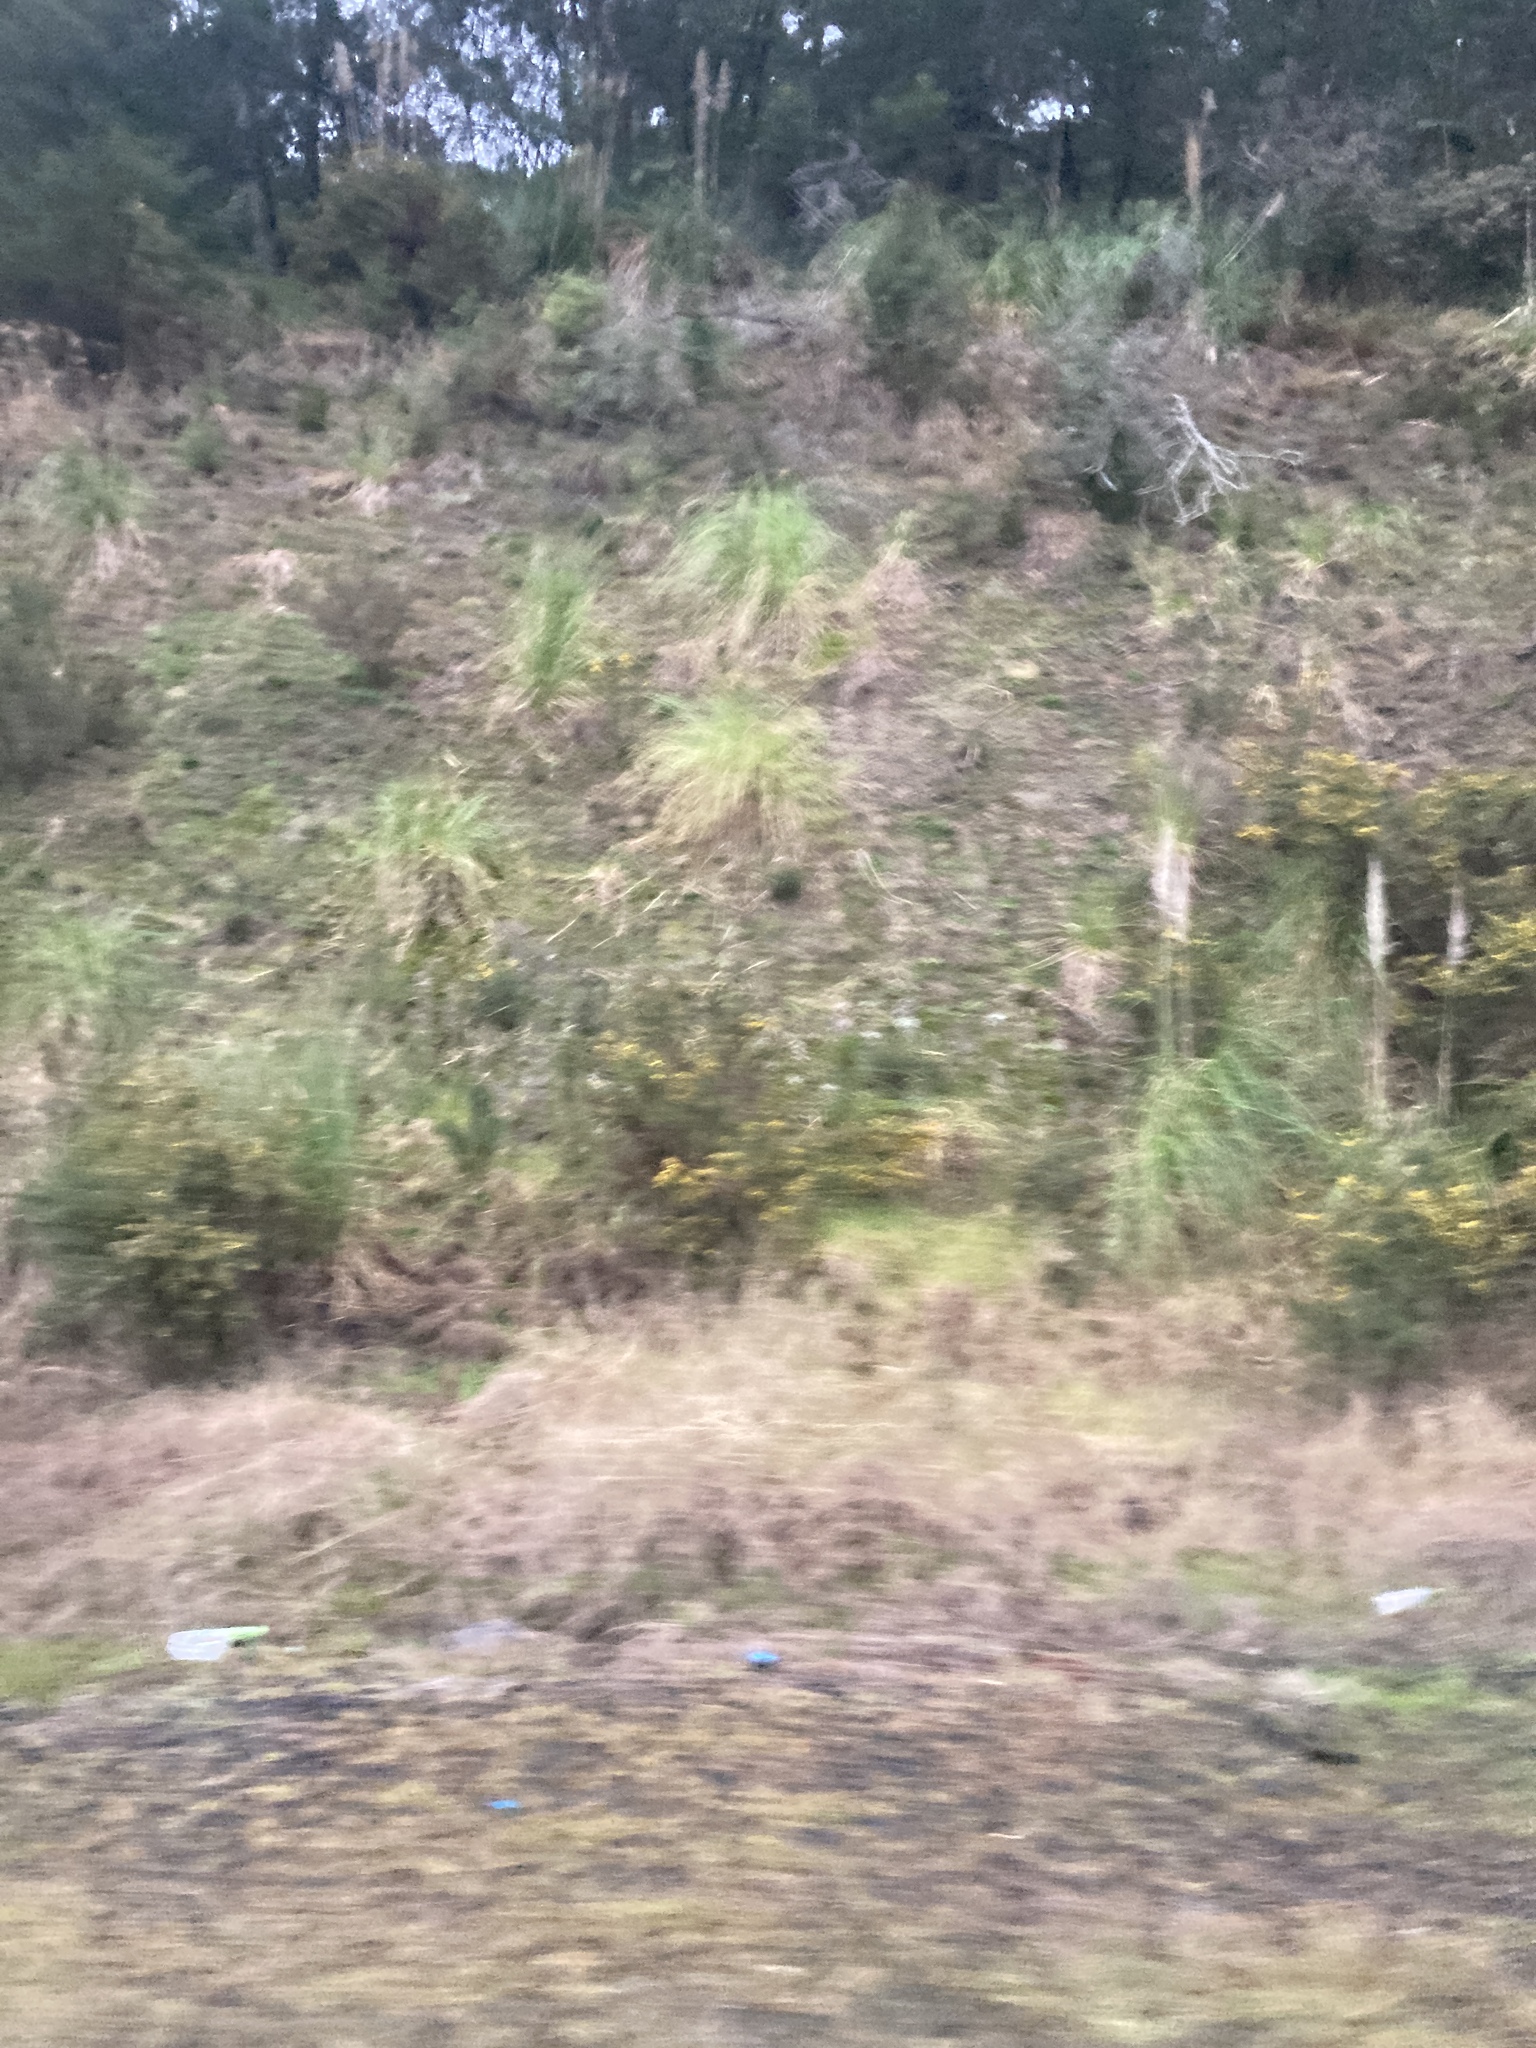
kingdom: Plantae
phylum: Tracheophyta
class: Liliopsida
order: Poales
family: Poaceae
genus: Cortaderia
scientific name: Cortaderia selloana
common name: Uruguayan pampas grass
